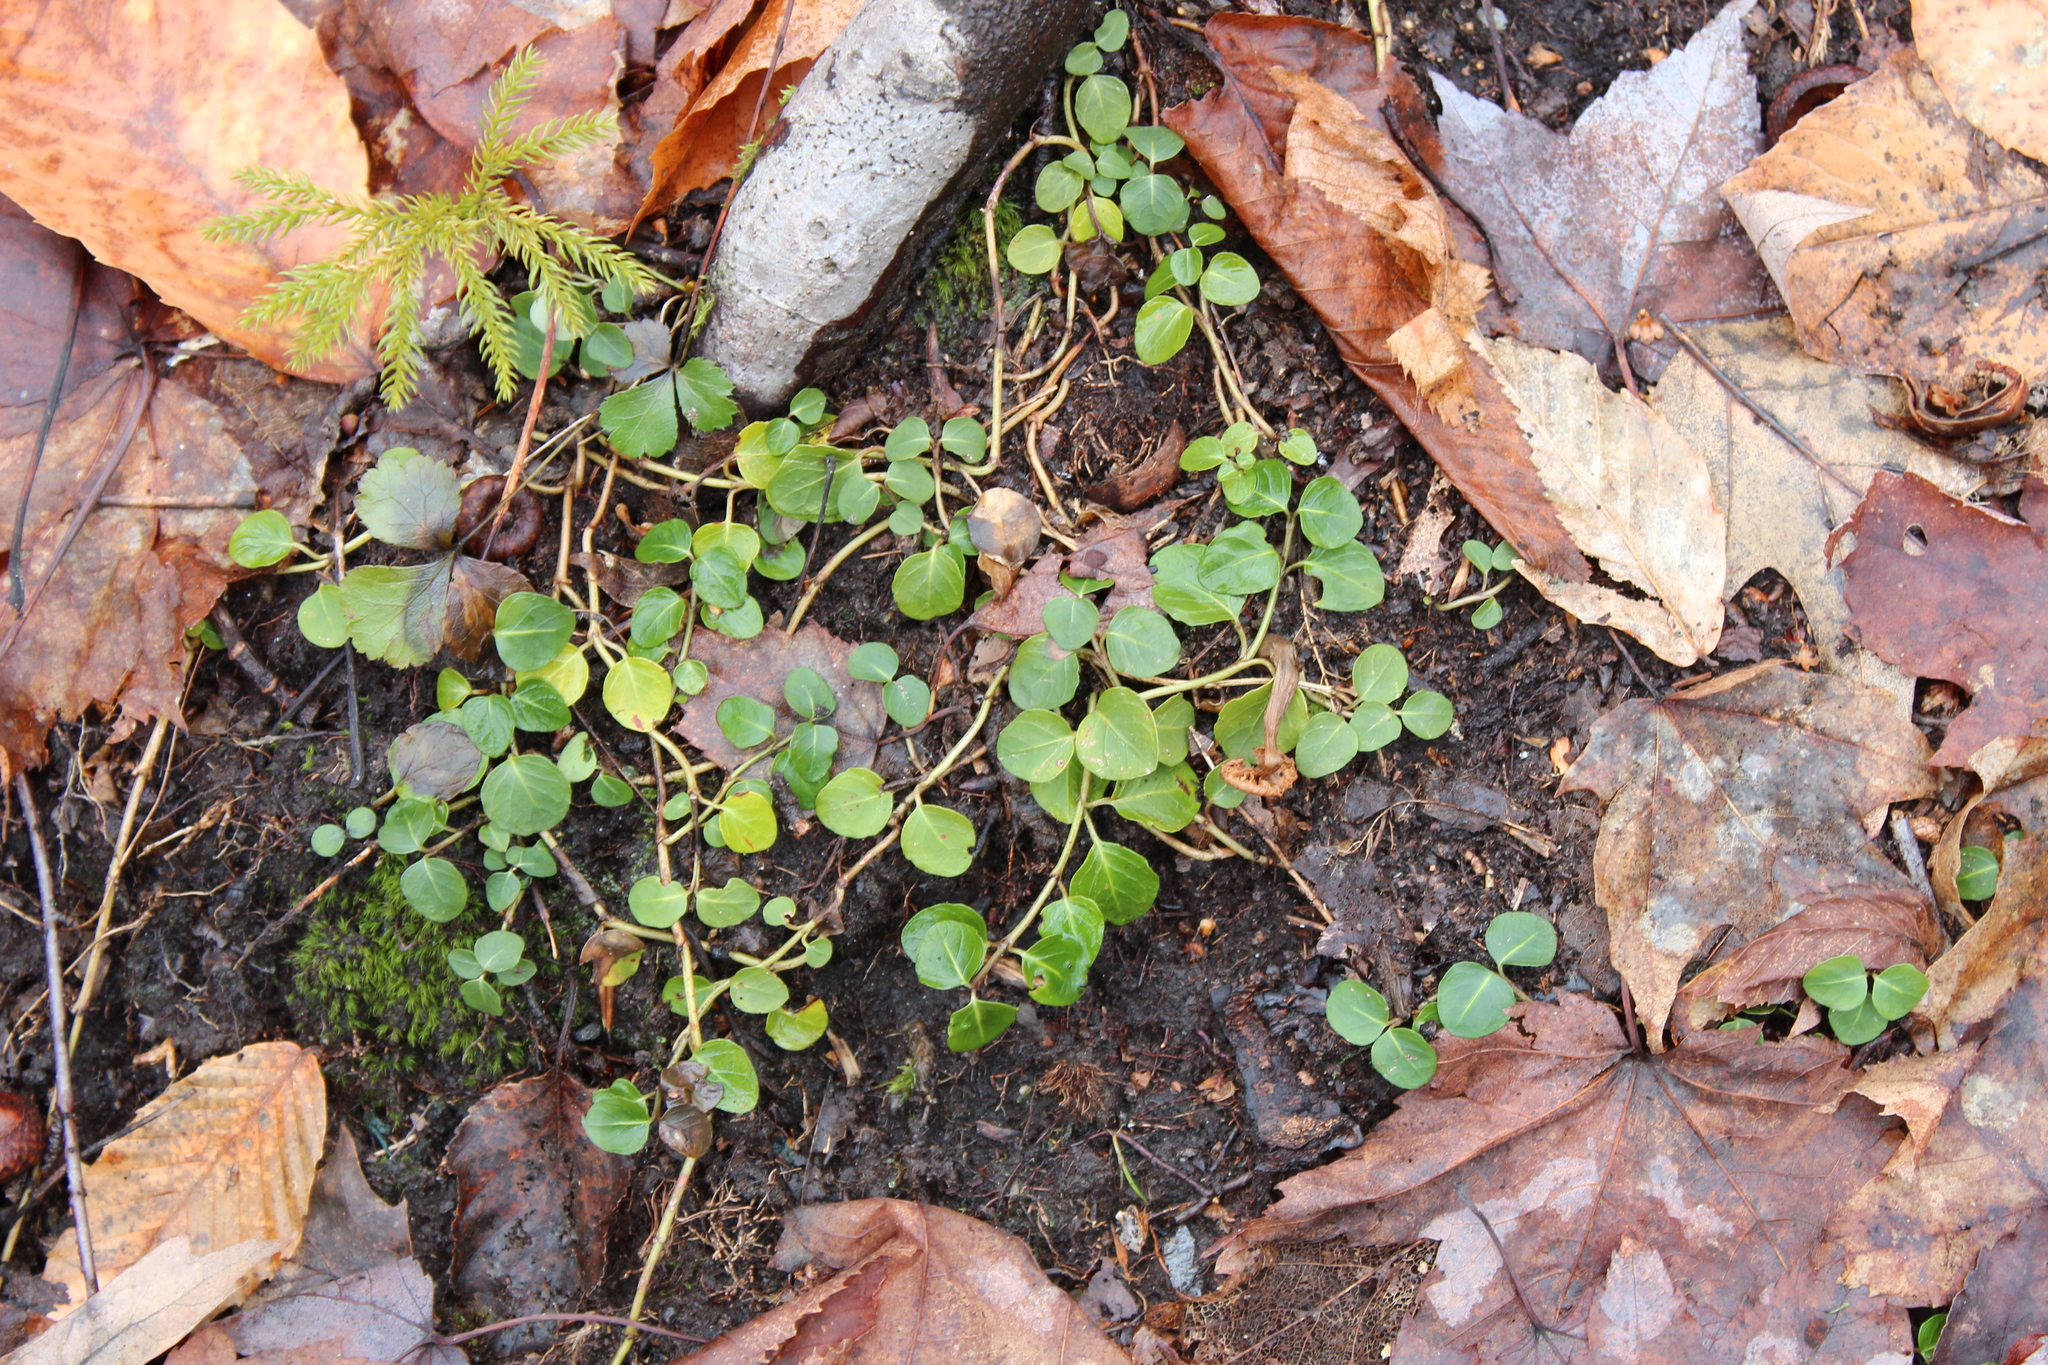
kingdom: Plantae
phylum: Tracheophyta
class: Magnoliopsida
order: Gentianales
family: Rubiaceae
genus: Mitchella
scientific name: Mitchella repens
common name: Partridge-berry
